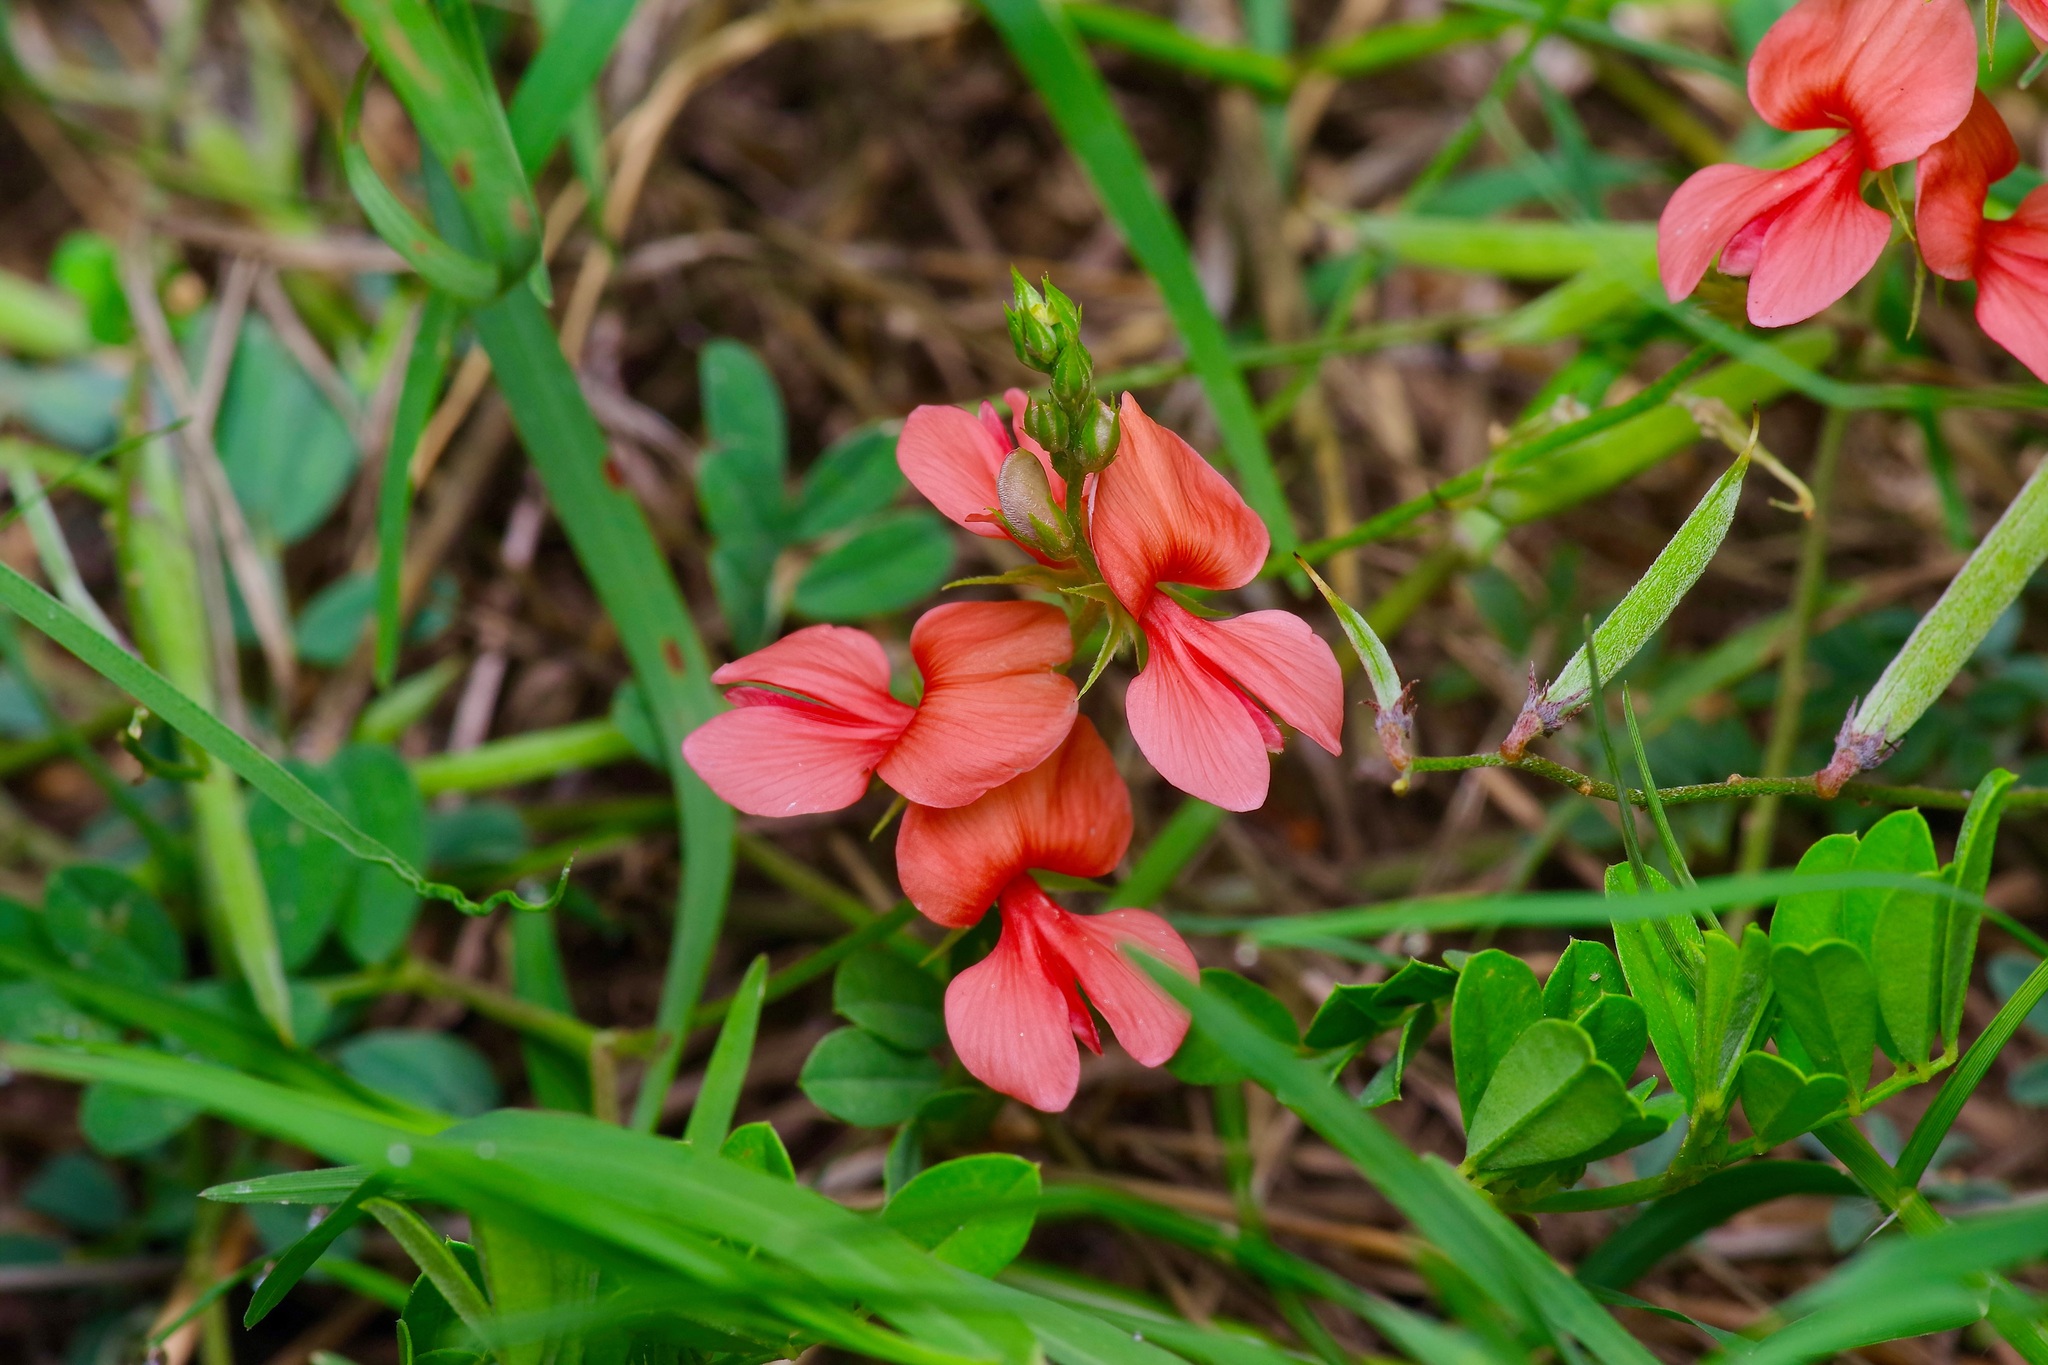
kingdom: Plantae
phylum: Tracheophyta
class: Magnoliopsida
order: Fabales
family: Fabaceae
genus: Indigofera
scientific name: Indigofera miniata
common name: Coast indigo
